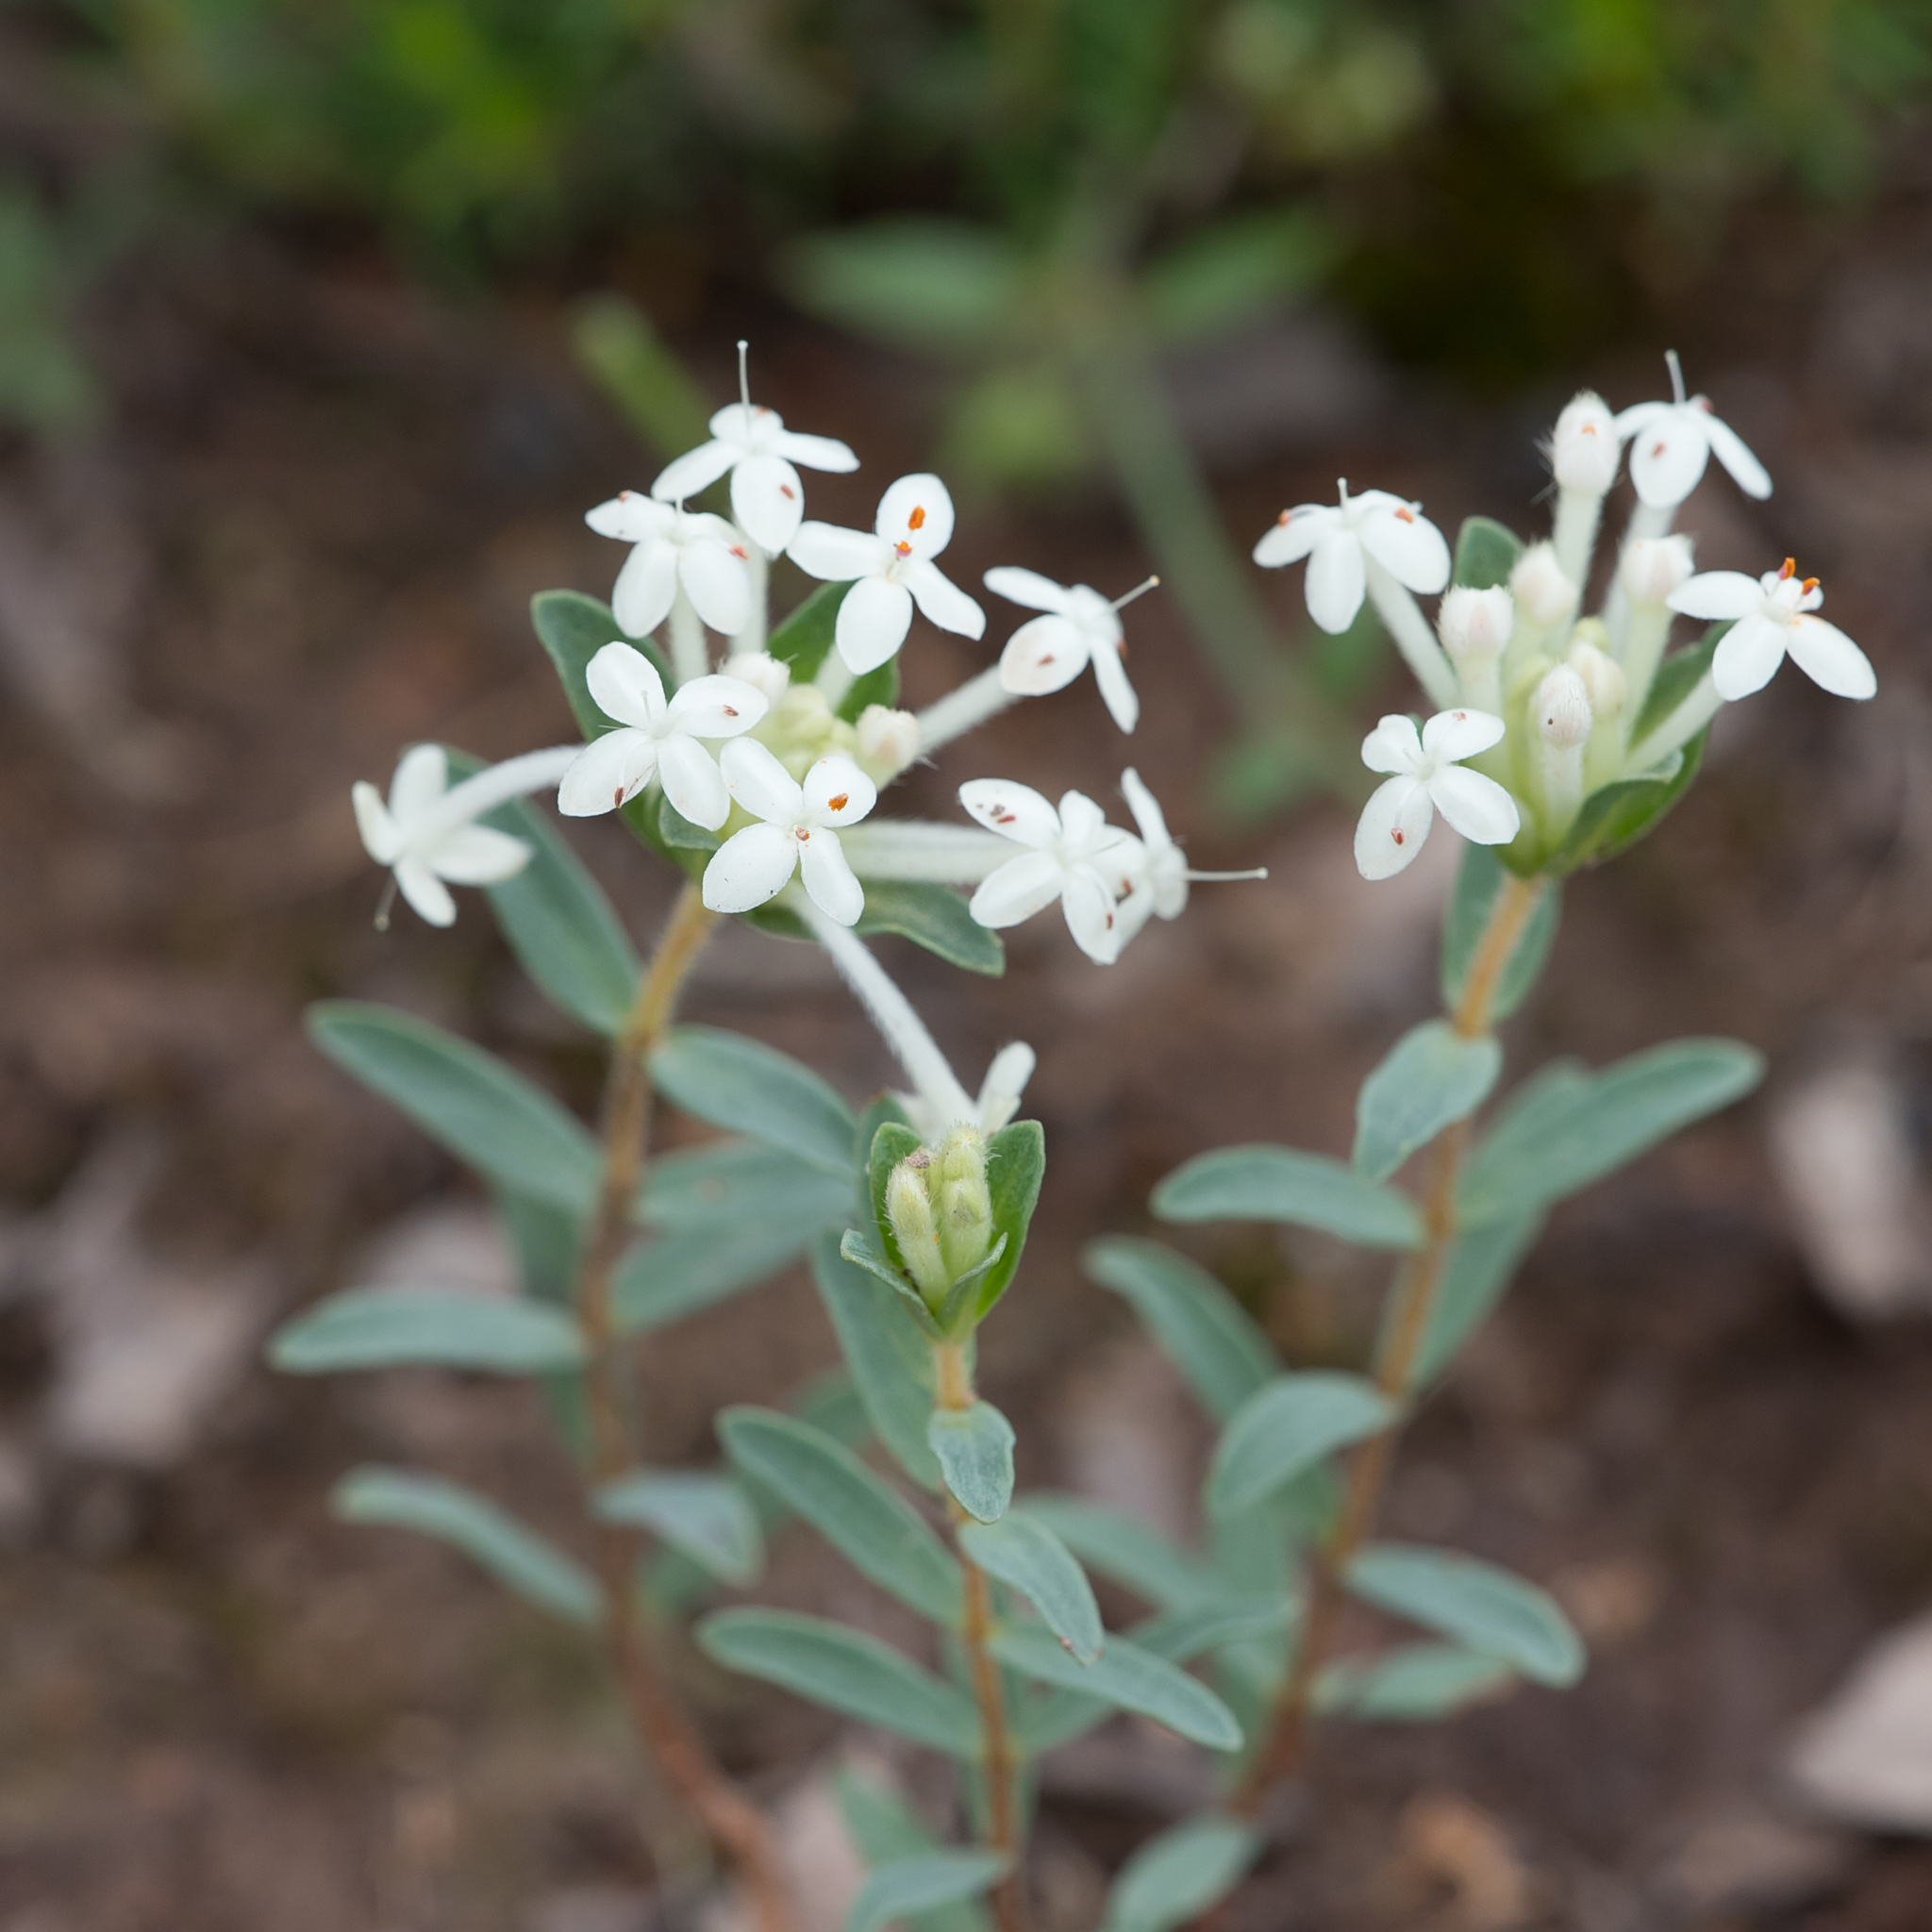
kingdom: Plantae
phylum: Tracheophyta
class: Magnoliopsida
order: Malvales
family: Thymelaeaceae
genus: Pimelea
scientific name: Pimelea humilis
